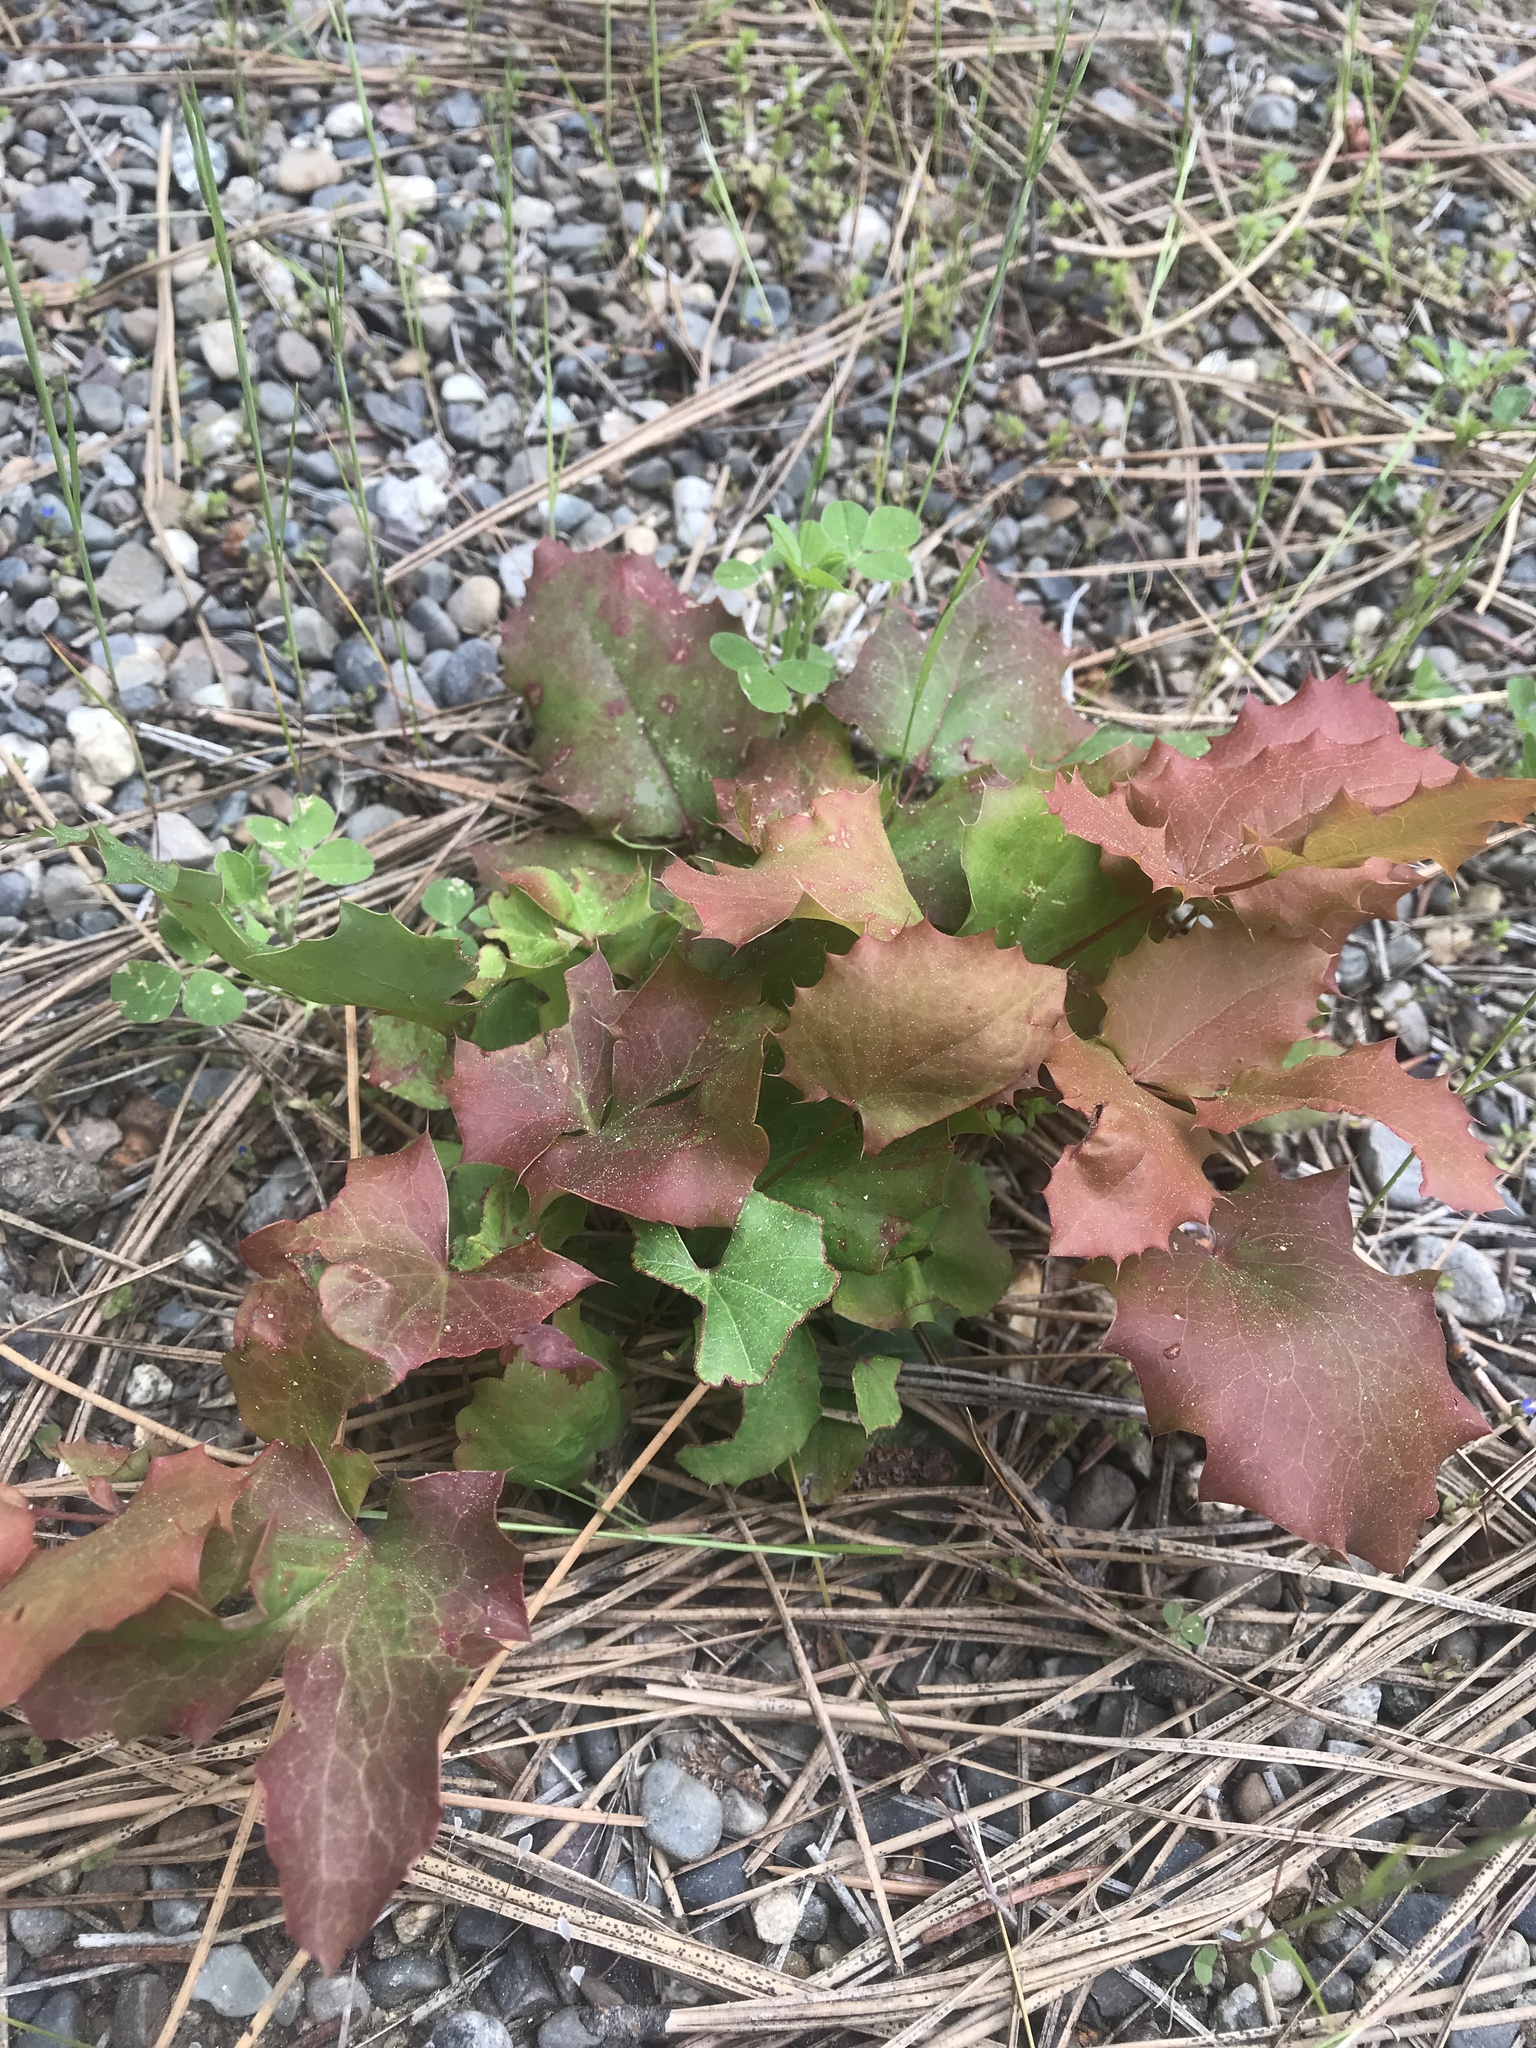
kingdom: Plantae
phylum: Tracheophyta
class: Magnoliopsida
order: Ranunculales
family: Berberidaceae
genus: Mahonia
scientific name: Mahonia repens
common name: Creeping oregon-grape
